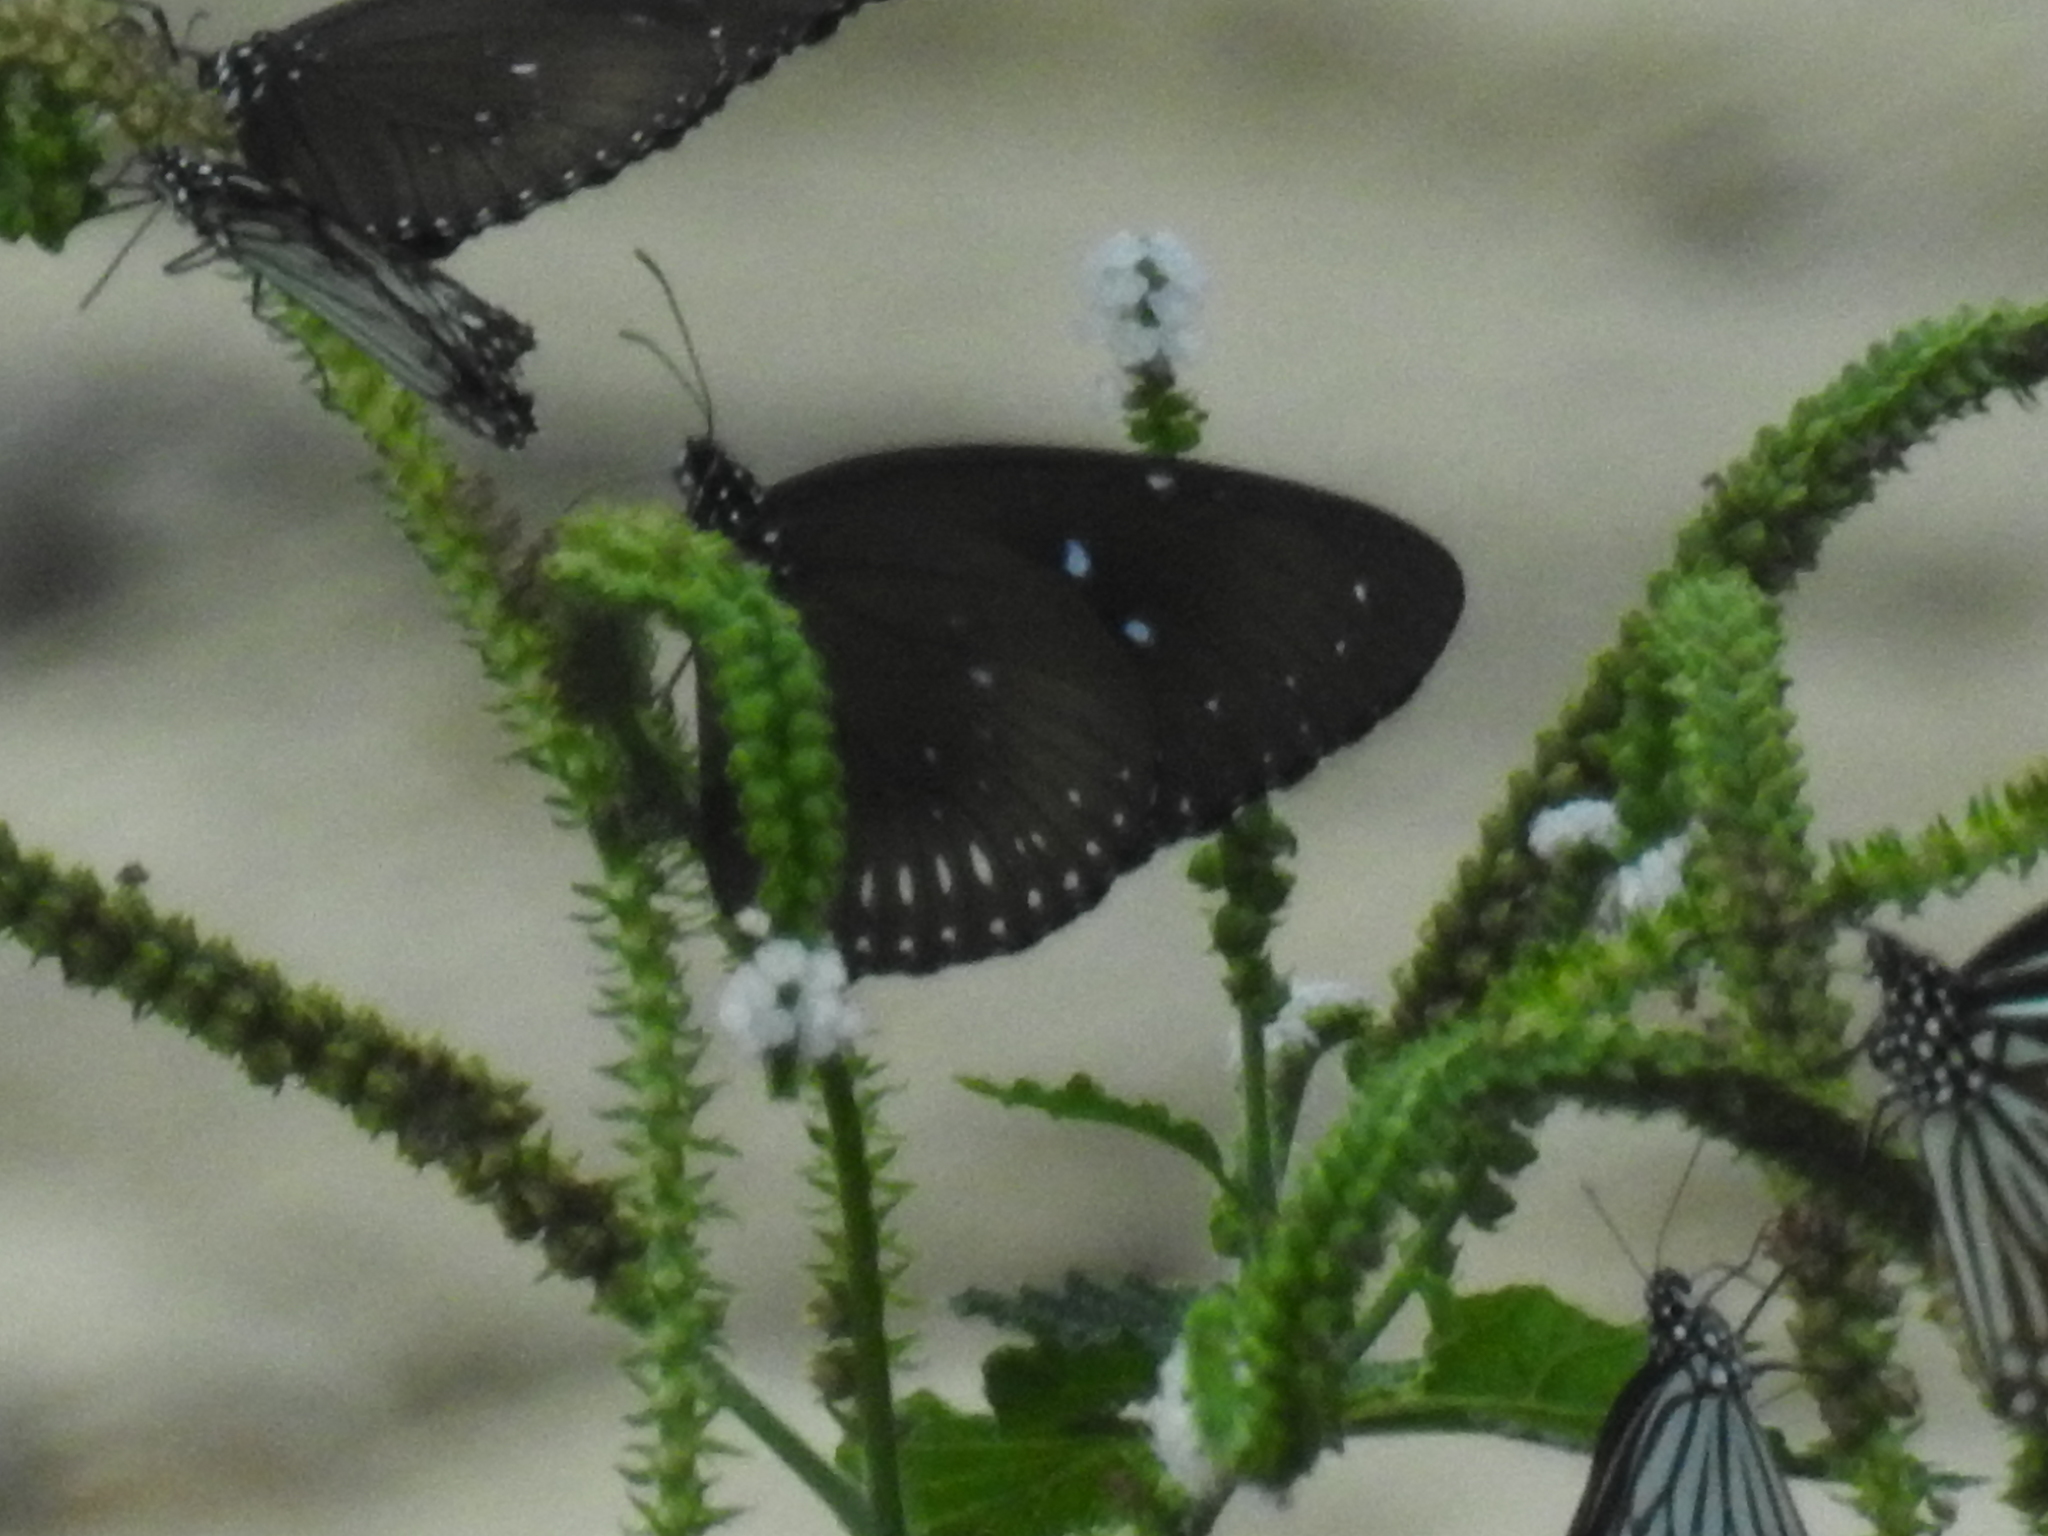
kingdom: Animalia
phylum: Arthropoda
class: Insecta
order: Lepidoptera
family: Nymphalidae
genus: Euploea
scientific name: Euploea midamus
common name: Blue-spotted crow butterfly
